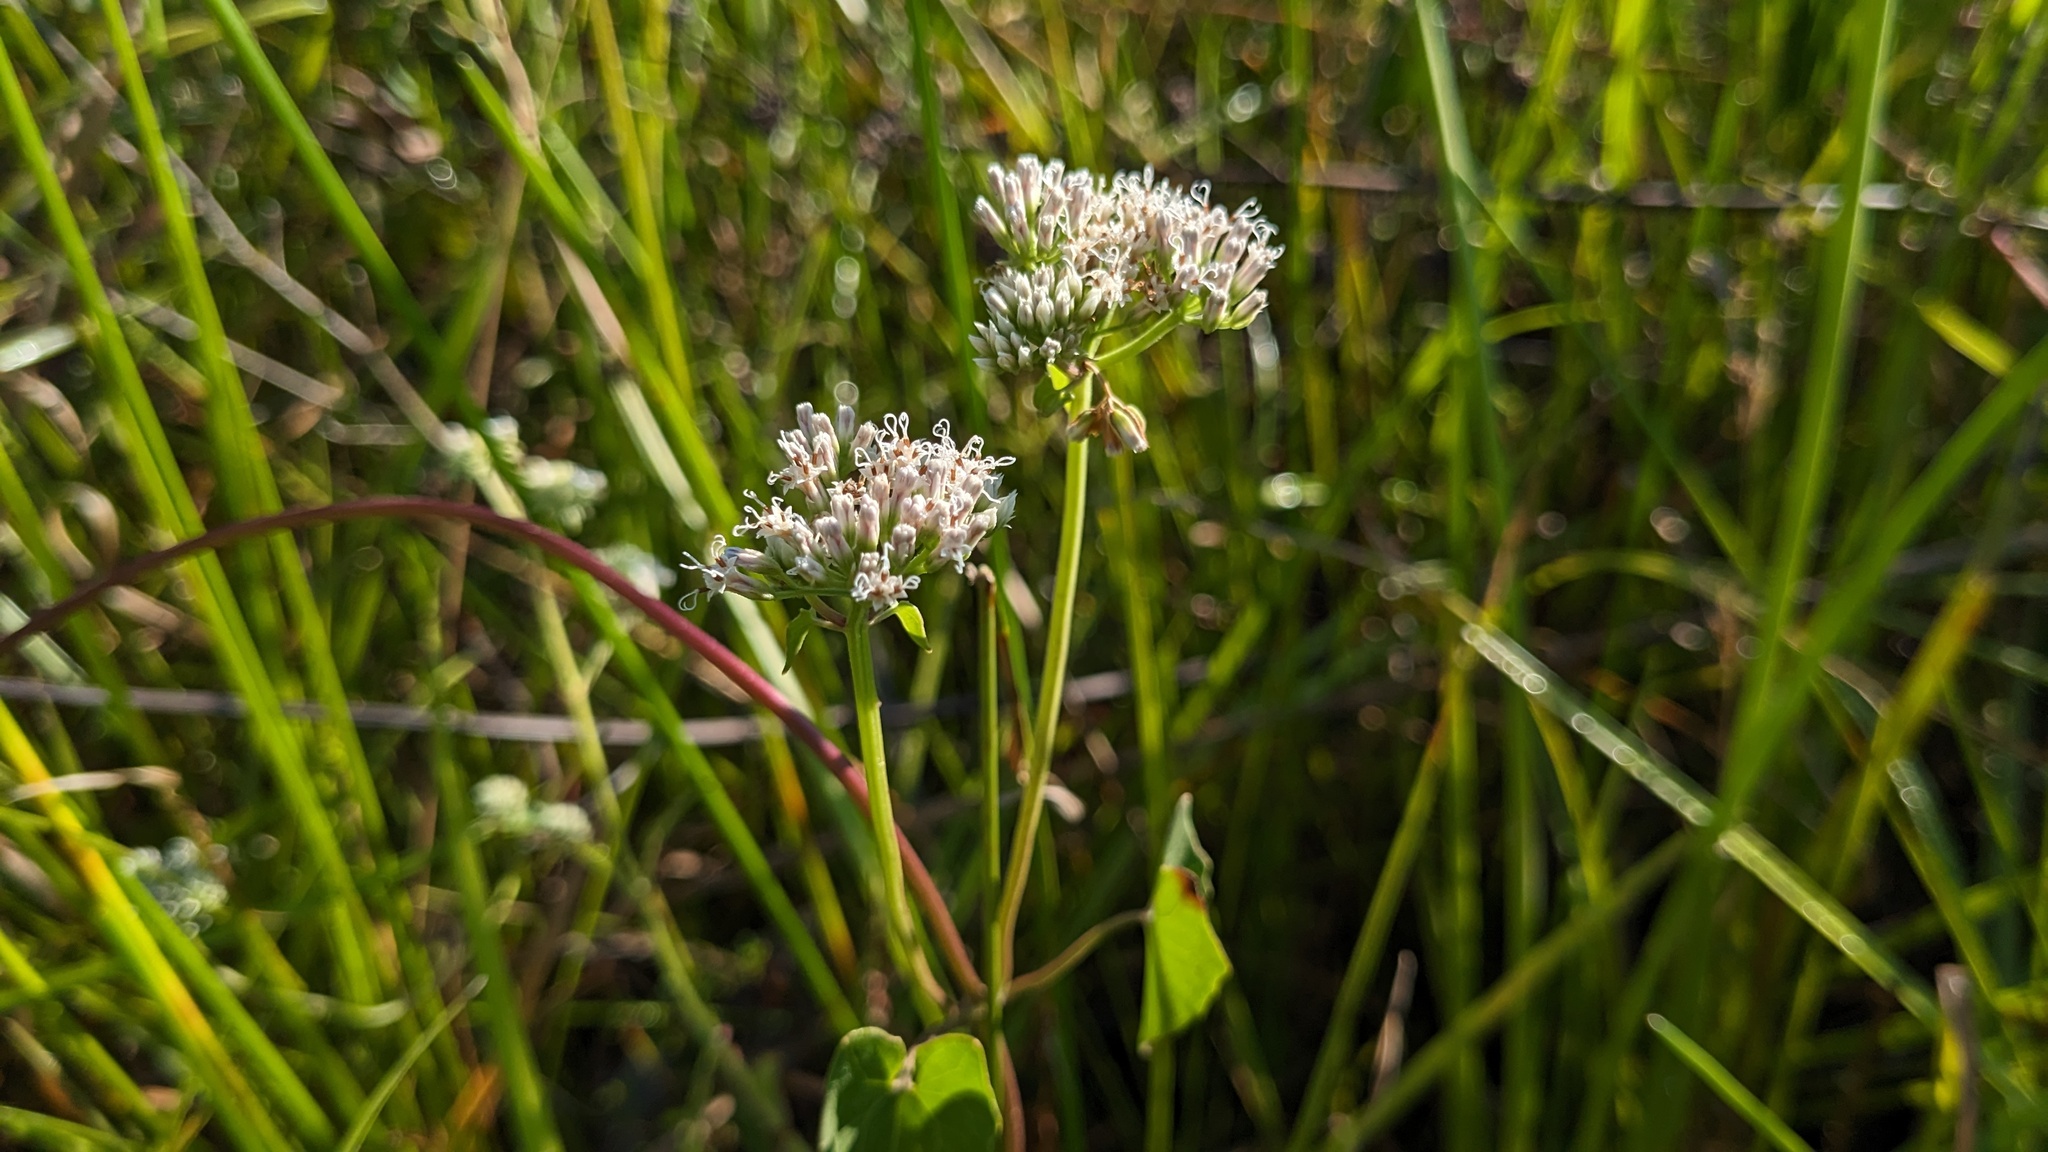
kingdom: Plantae
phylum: Tracheophyta
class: Magnoliopsida
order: Asterales
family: Asteraceae
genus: Mikania
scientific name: Mikania scandens
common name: Climbing hempvine
